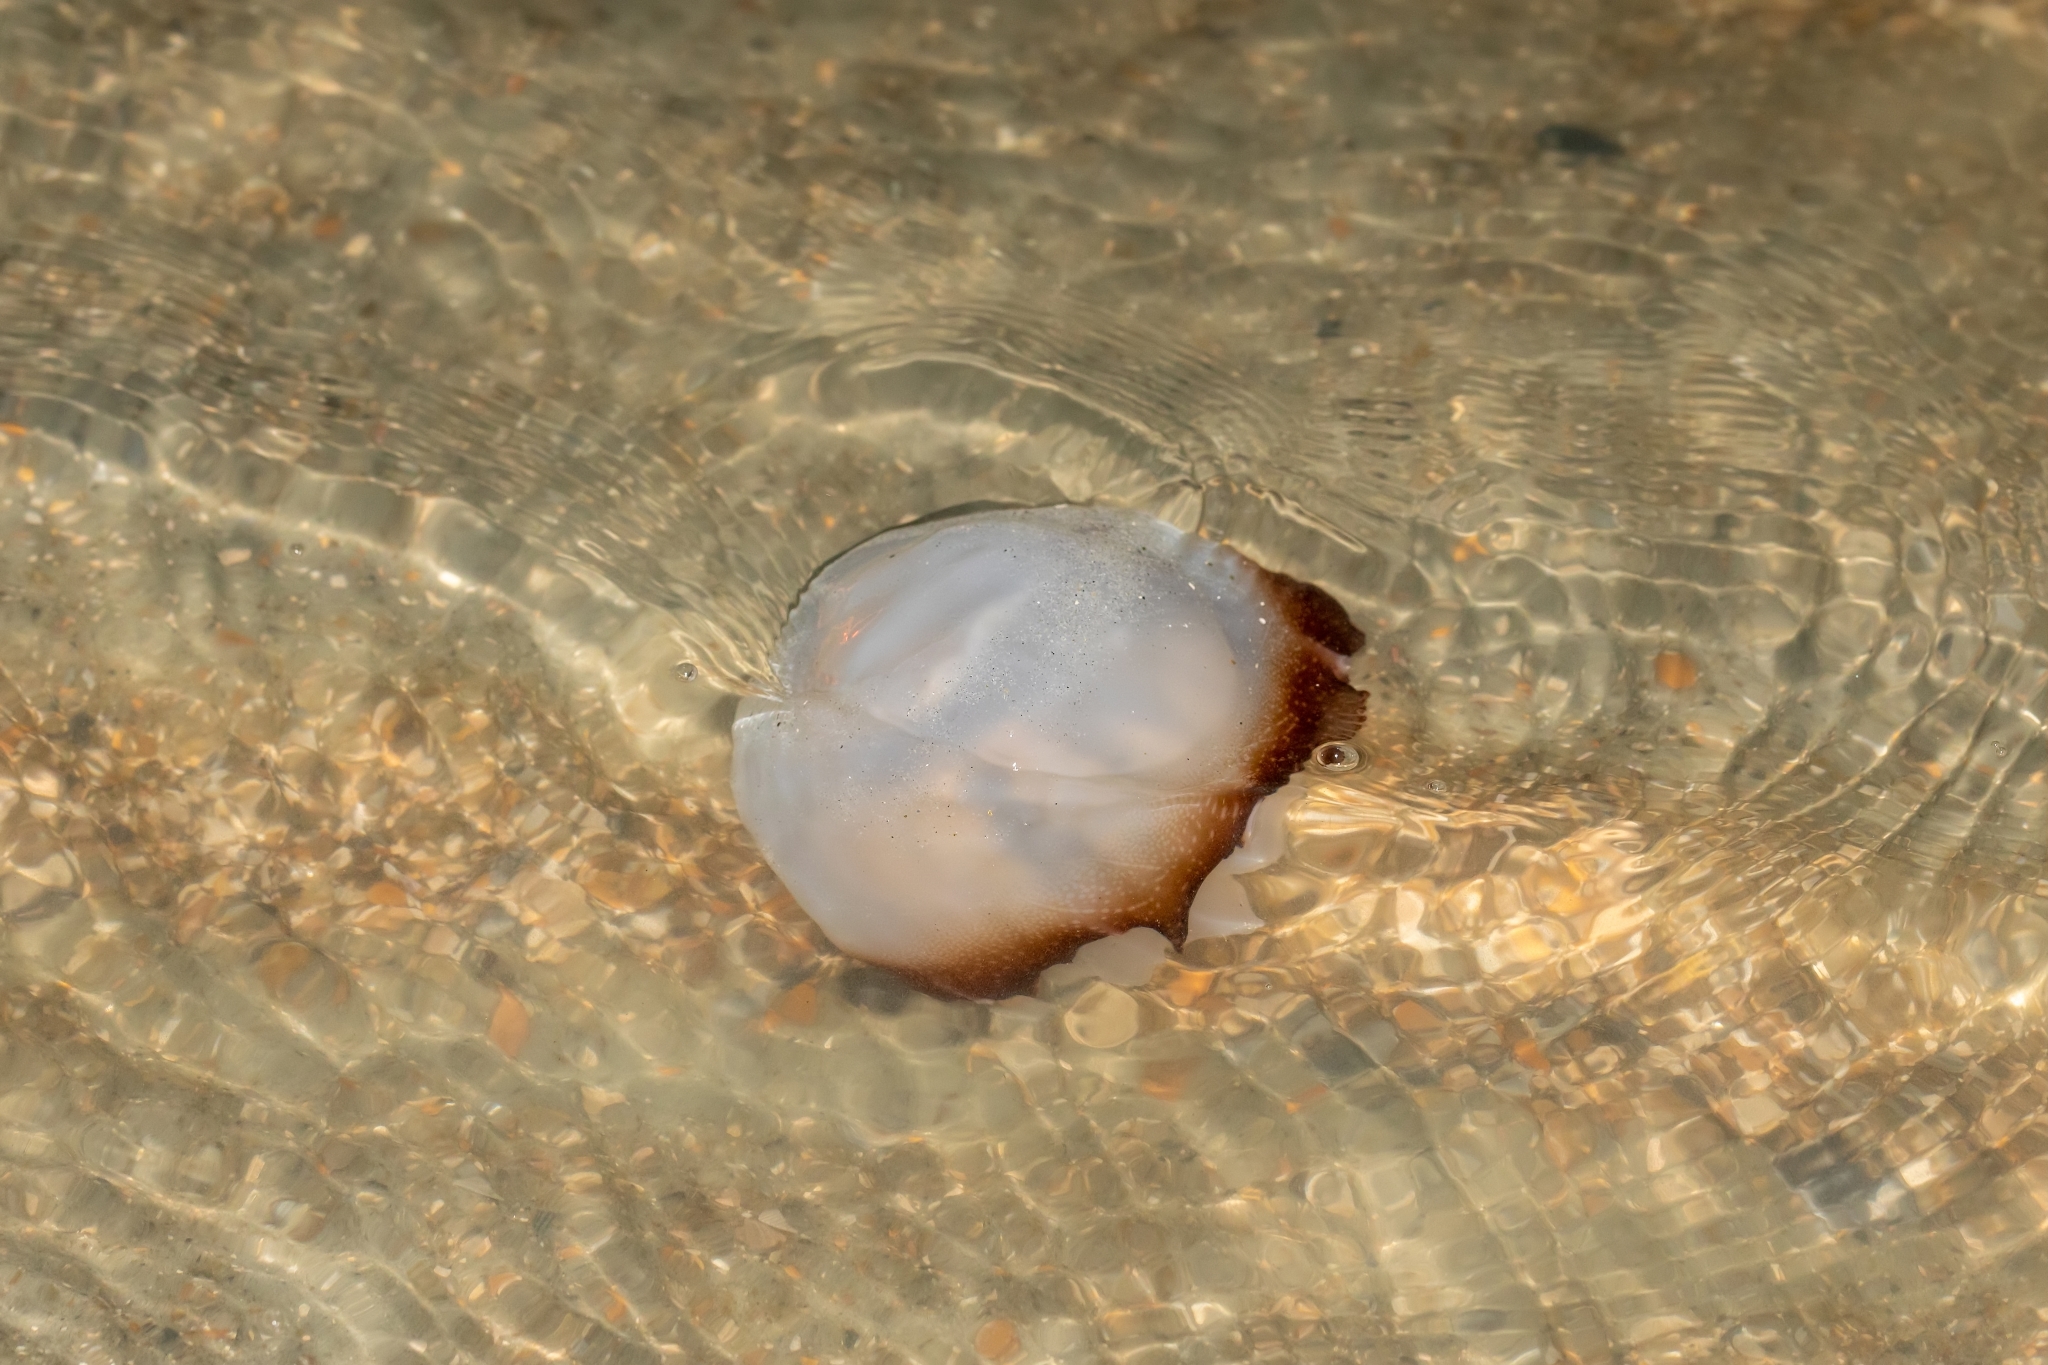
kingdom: Animalia
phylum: Cnidaria
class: Scyphozoa
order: Rhizostomeae
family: Stomolophidae
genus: Stomolophus
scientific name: Stomolophus meleagris
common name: Cabbagehead
